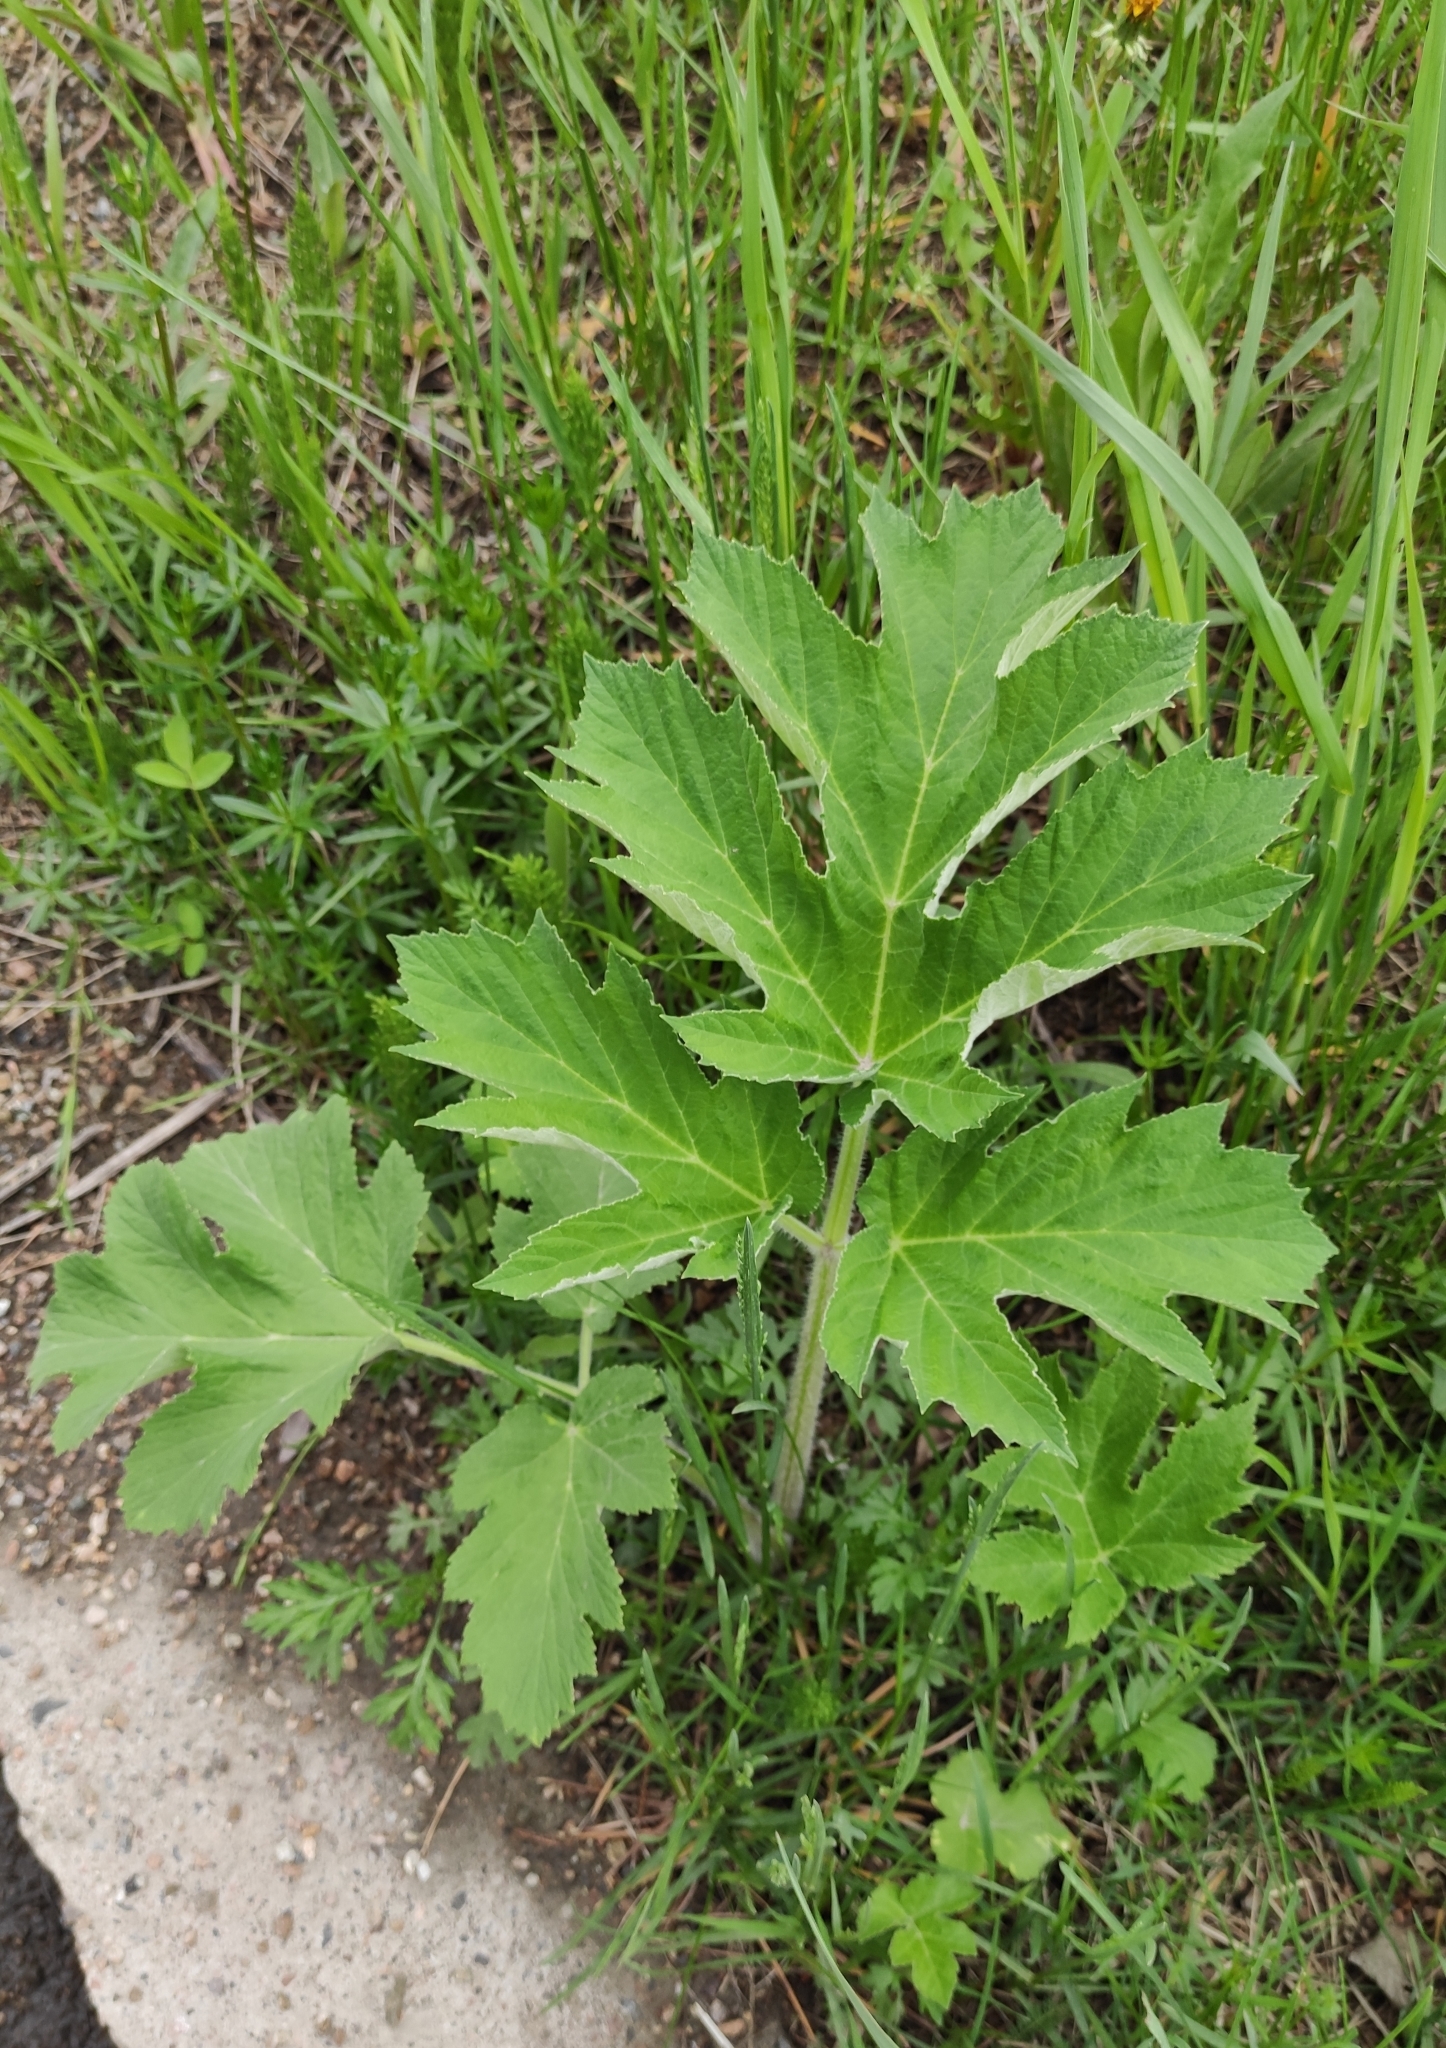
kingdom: Plantae
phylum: Tracheophyta
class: Magnoliopsida
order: Apiales
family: Apiaceae
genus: Heracleum
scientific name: Heracleum dissectum
